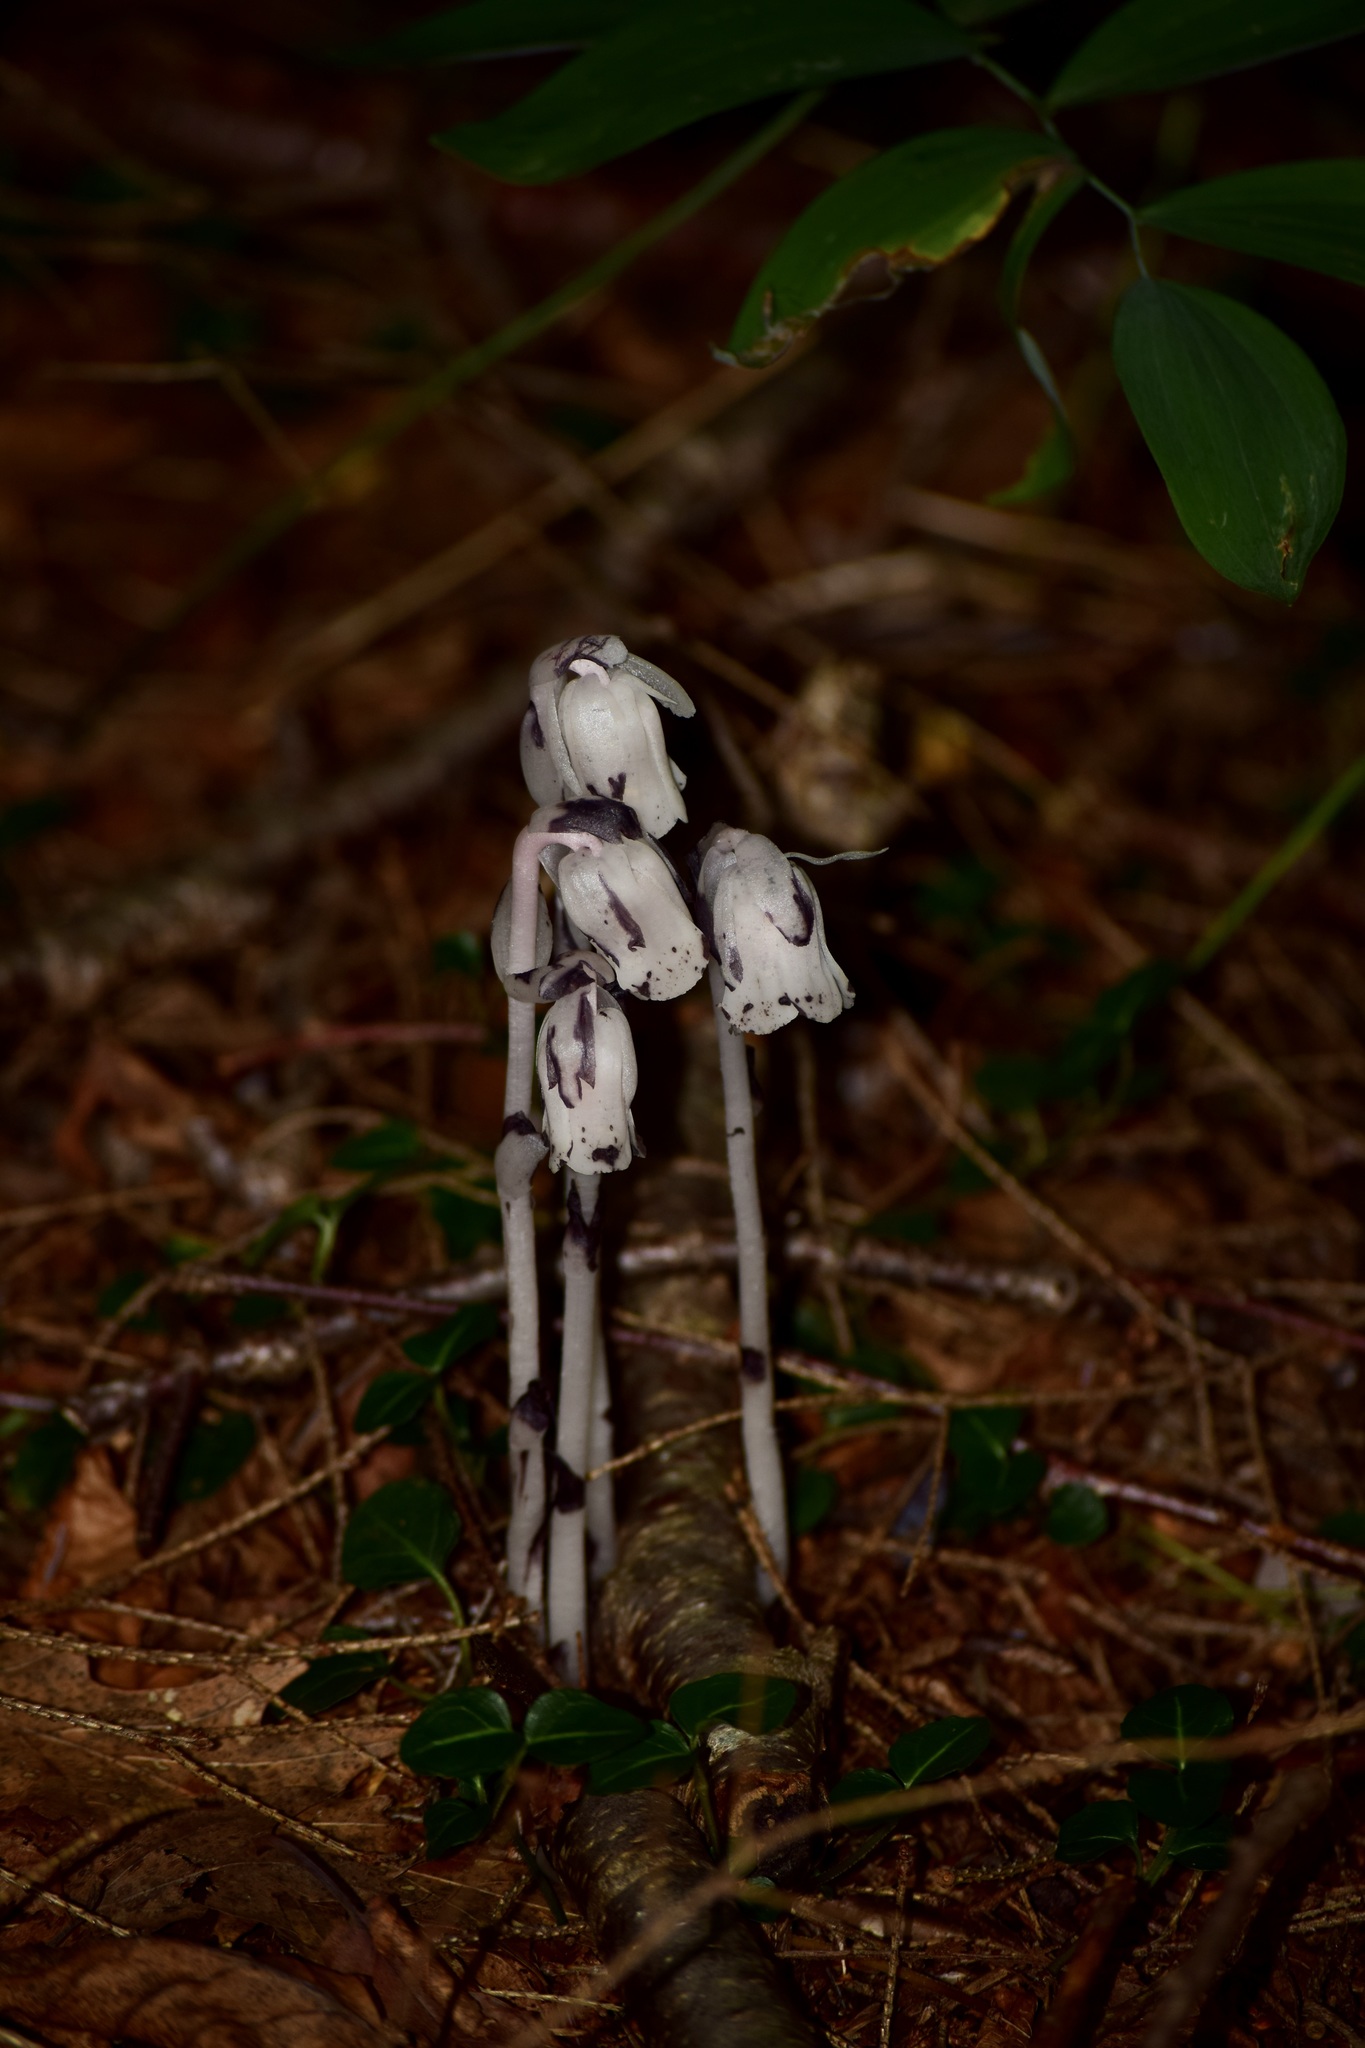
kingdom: Plantae
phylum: Tracheophyta
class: Magnoliopsida
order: Ericales
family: Ericaceae
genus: Monotropa
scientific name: Monotropa uniflora
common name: Convulsion root
